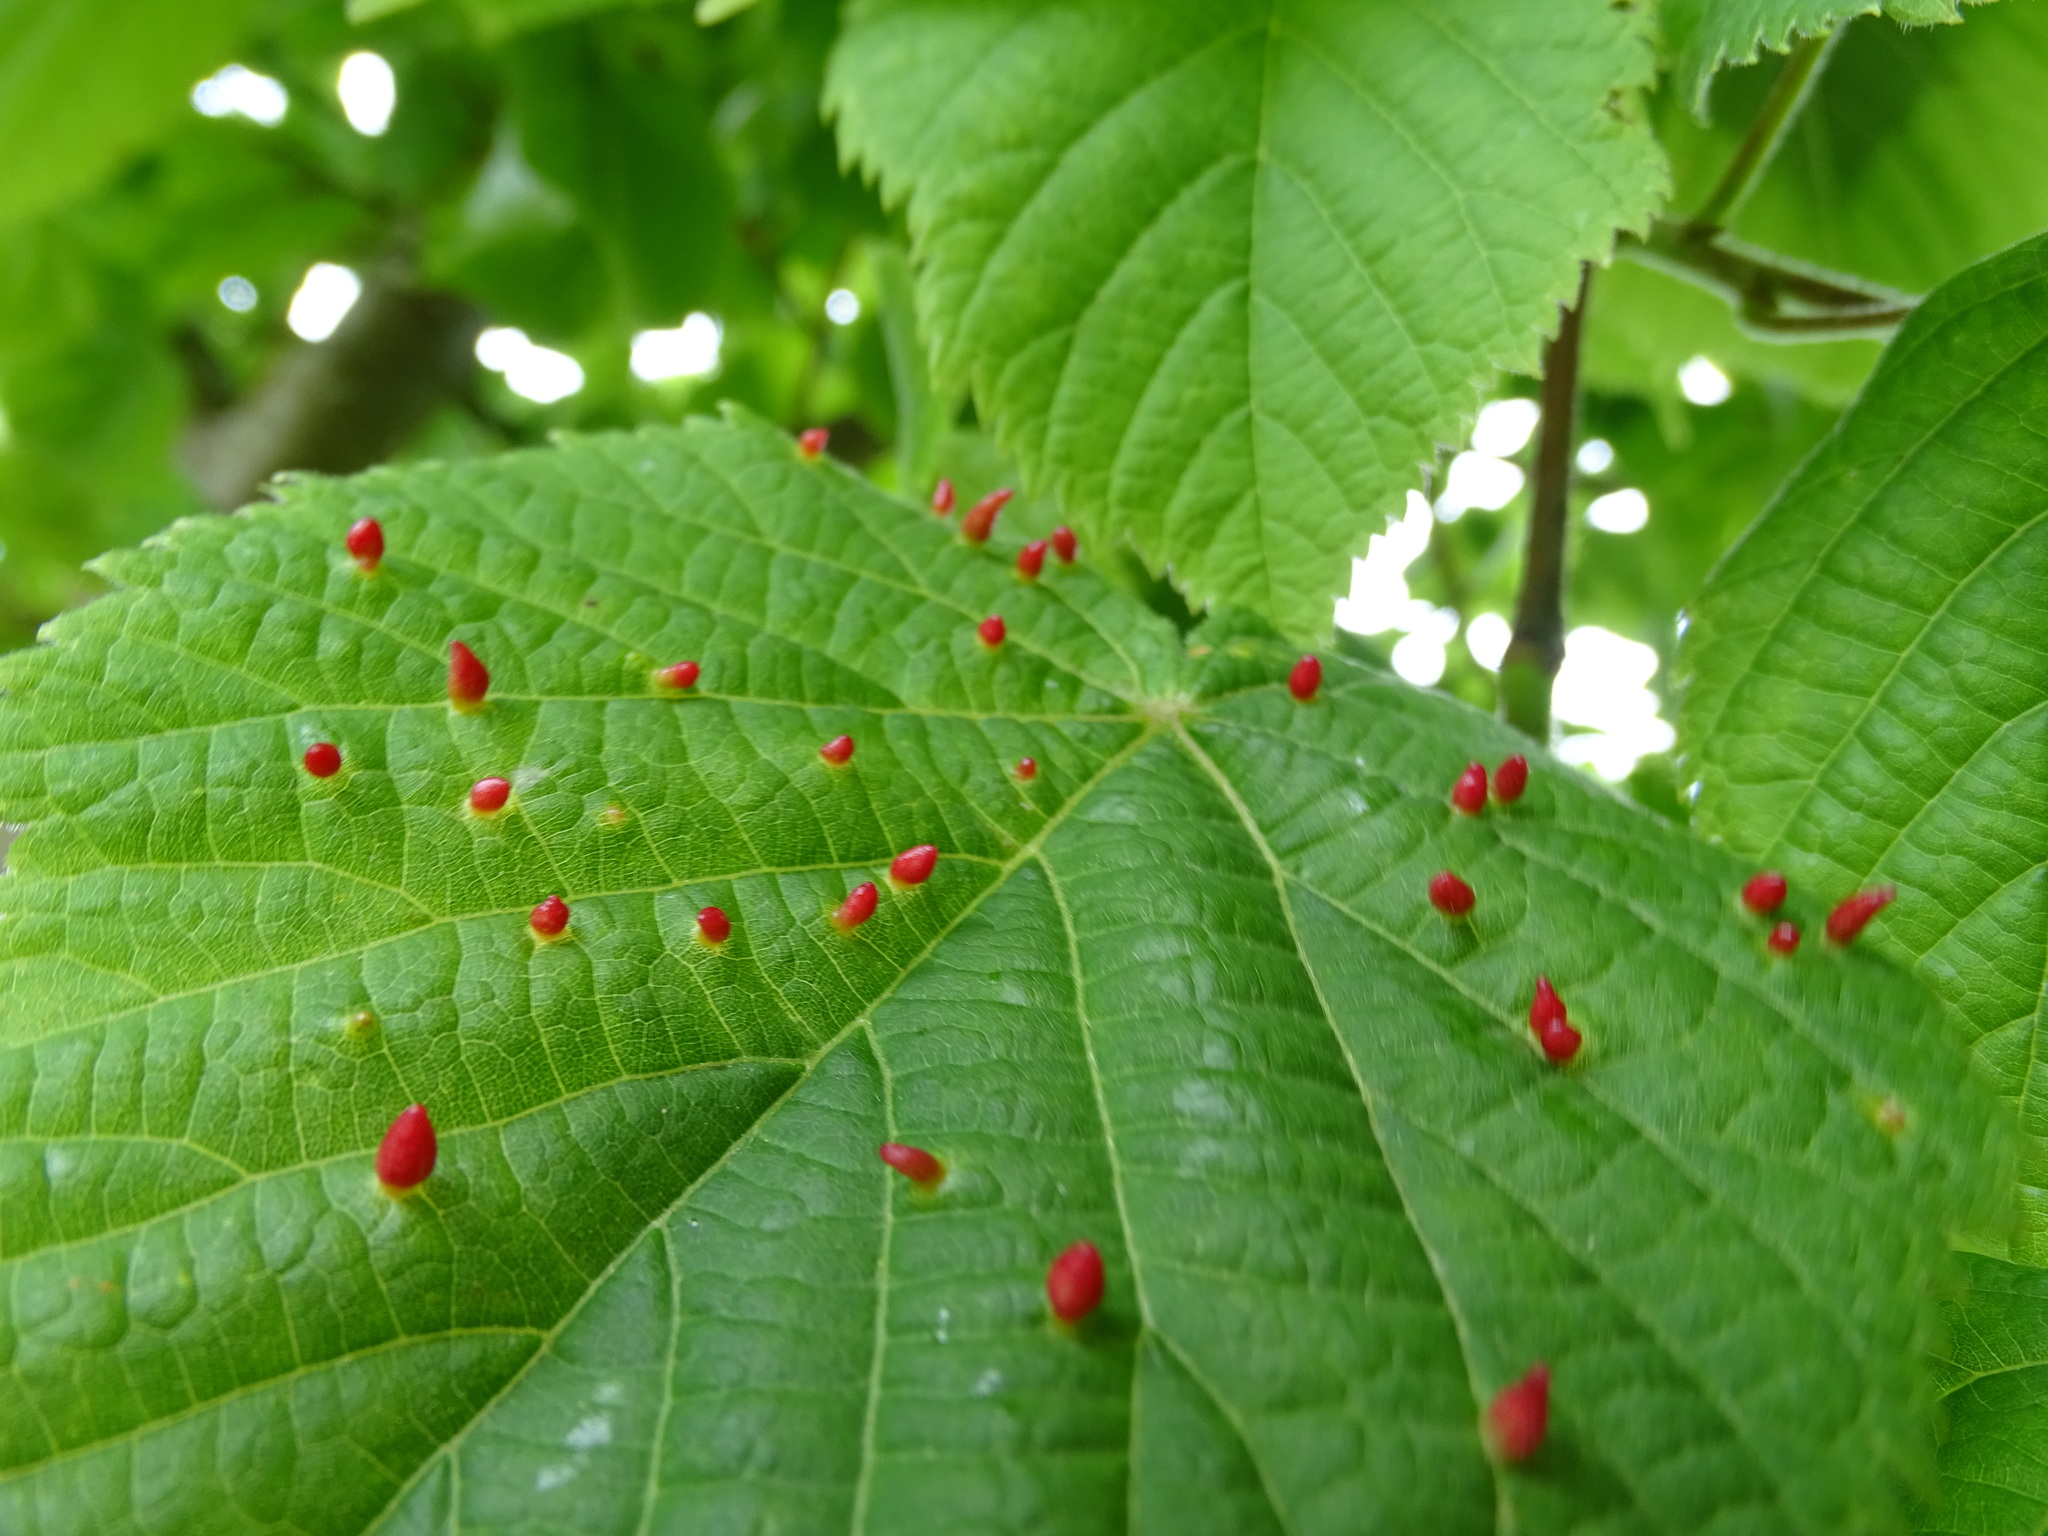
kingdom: Animalia
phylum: Arthropoda
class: Arachnida
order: Trombidiformes
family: Eriophyidae
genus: Eriophyes
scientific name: Eriophyes tiliae
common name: Red nail gall mite
